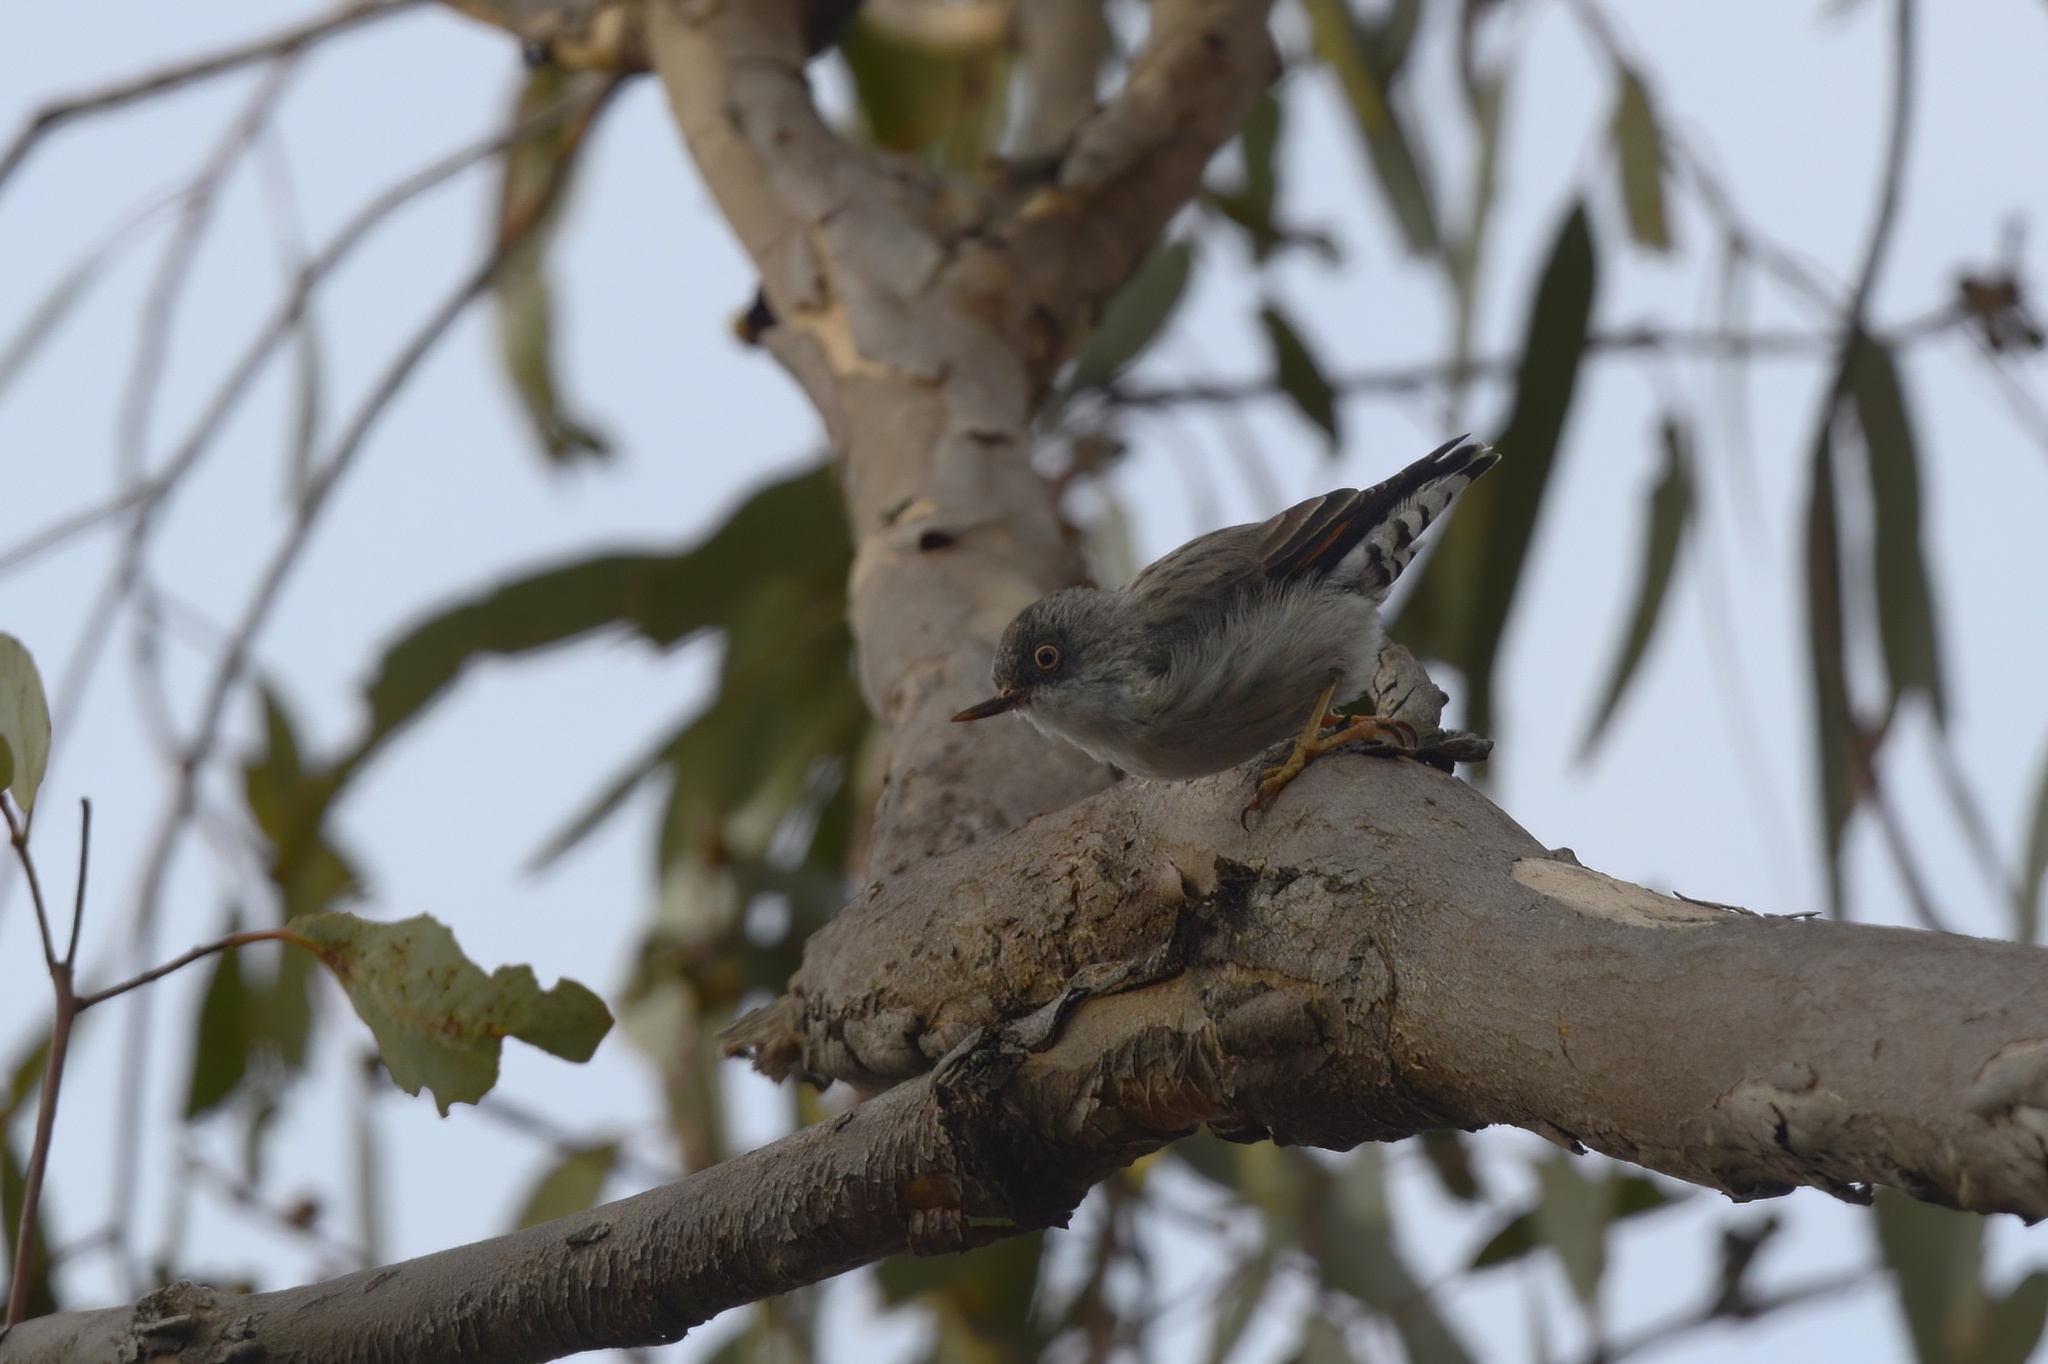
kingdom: Animalia
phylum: Chordata
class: Aves
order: Passeriformes
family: Neosittidae
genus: Daphoenositta
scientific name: Daphoenositta chrysoptera
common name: Varied sittella
